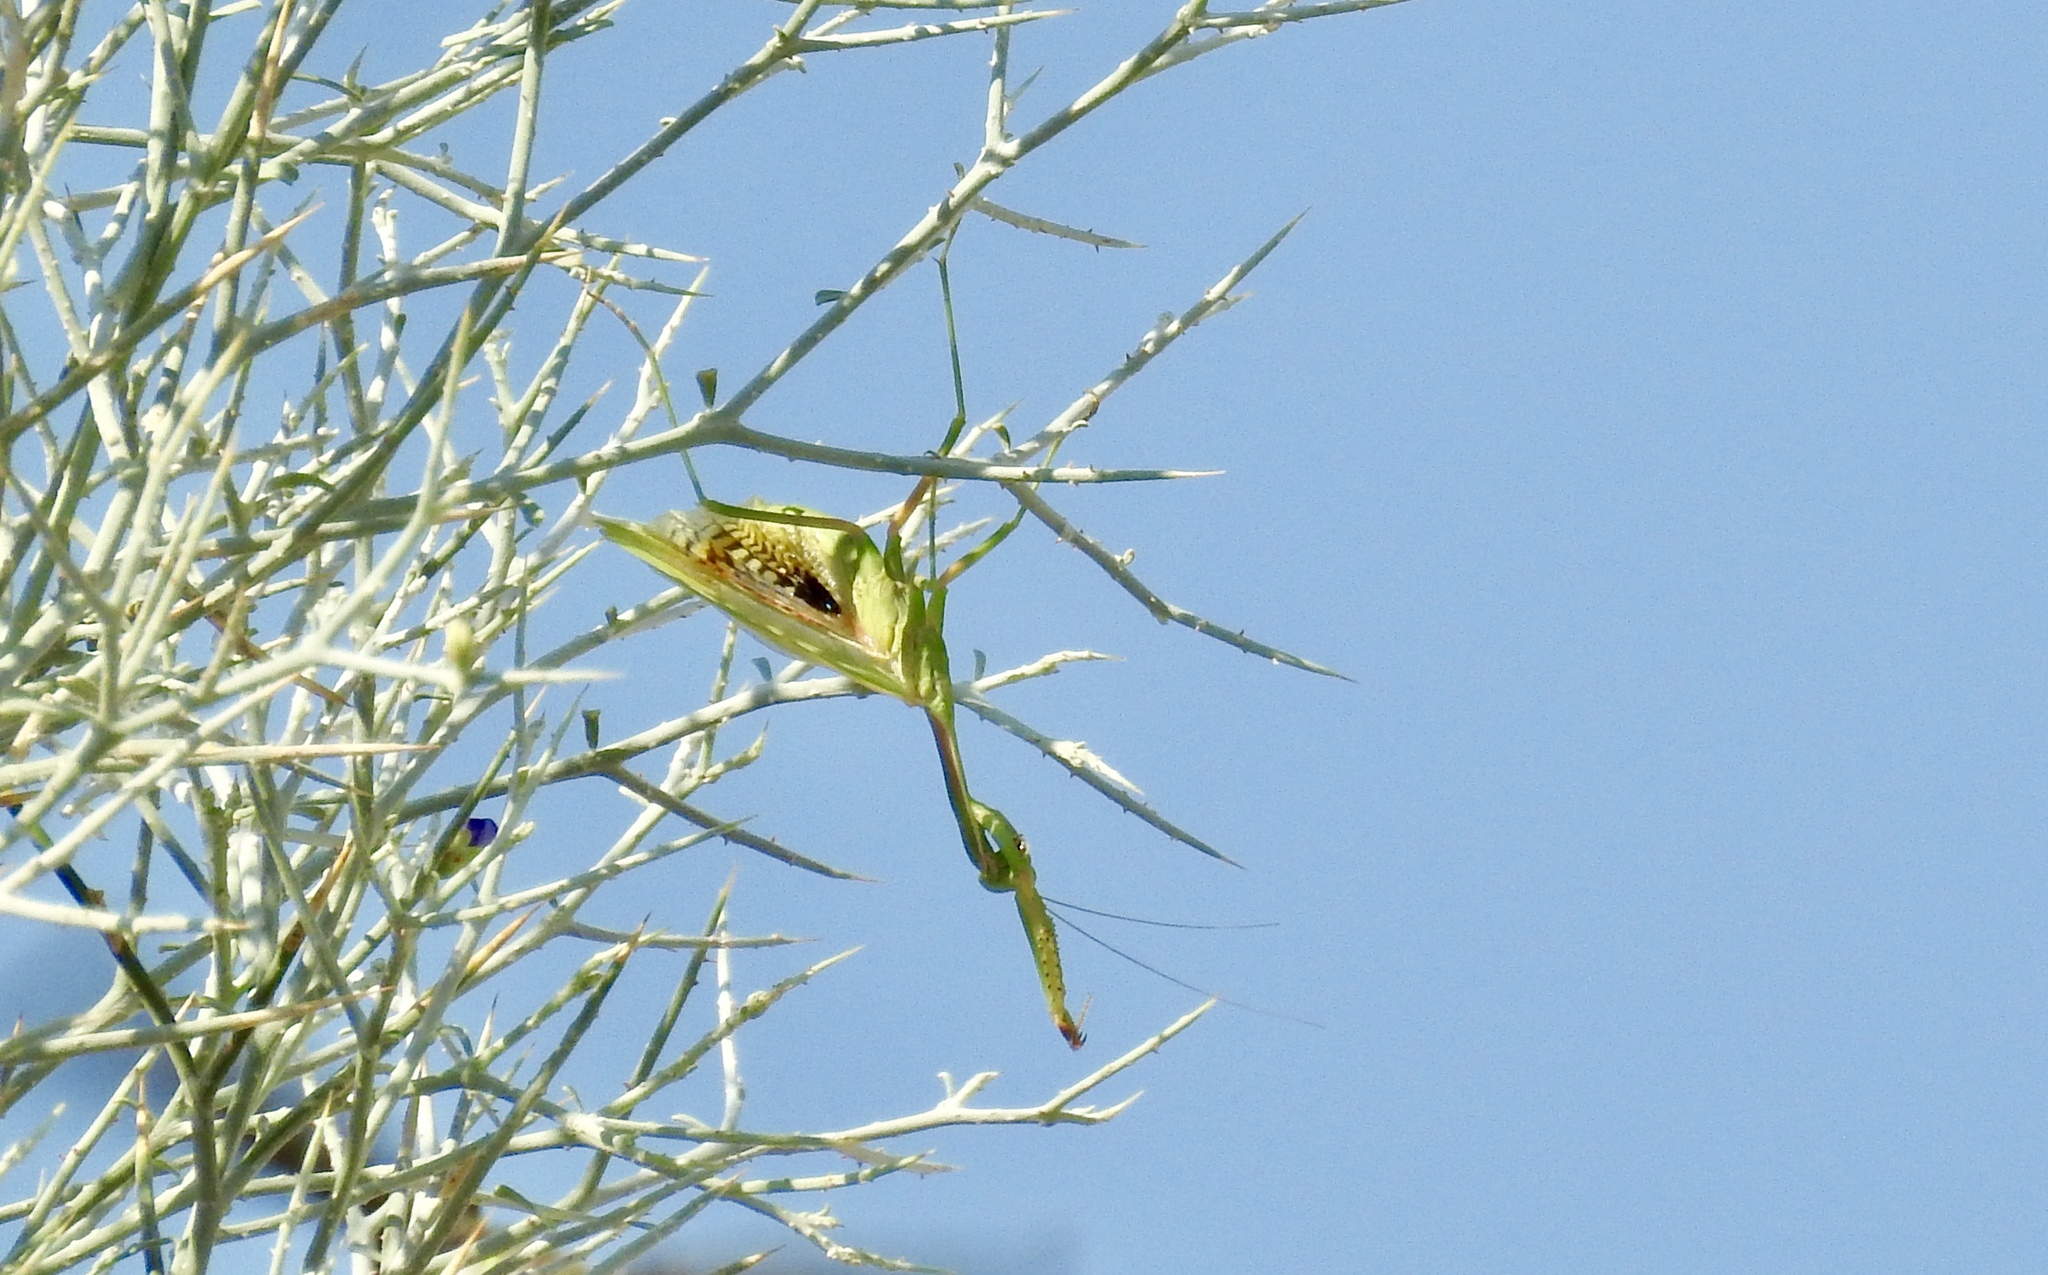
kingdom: Animalia
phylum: Arthropoda
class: Insecta
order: Mantodea
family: Eremiaphilidae
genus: Iris
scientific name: Iris oratoria
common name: Mediterranean mantis
